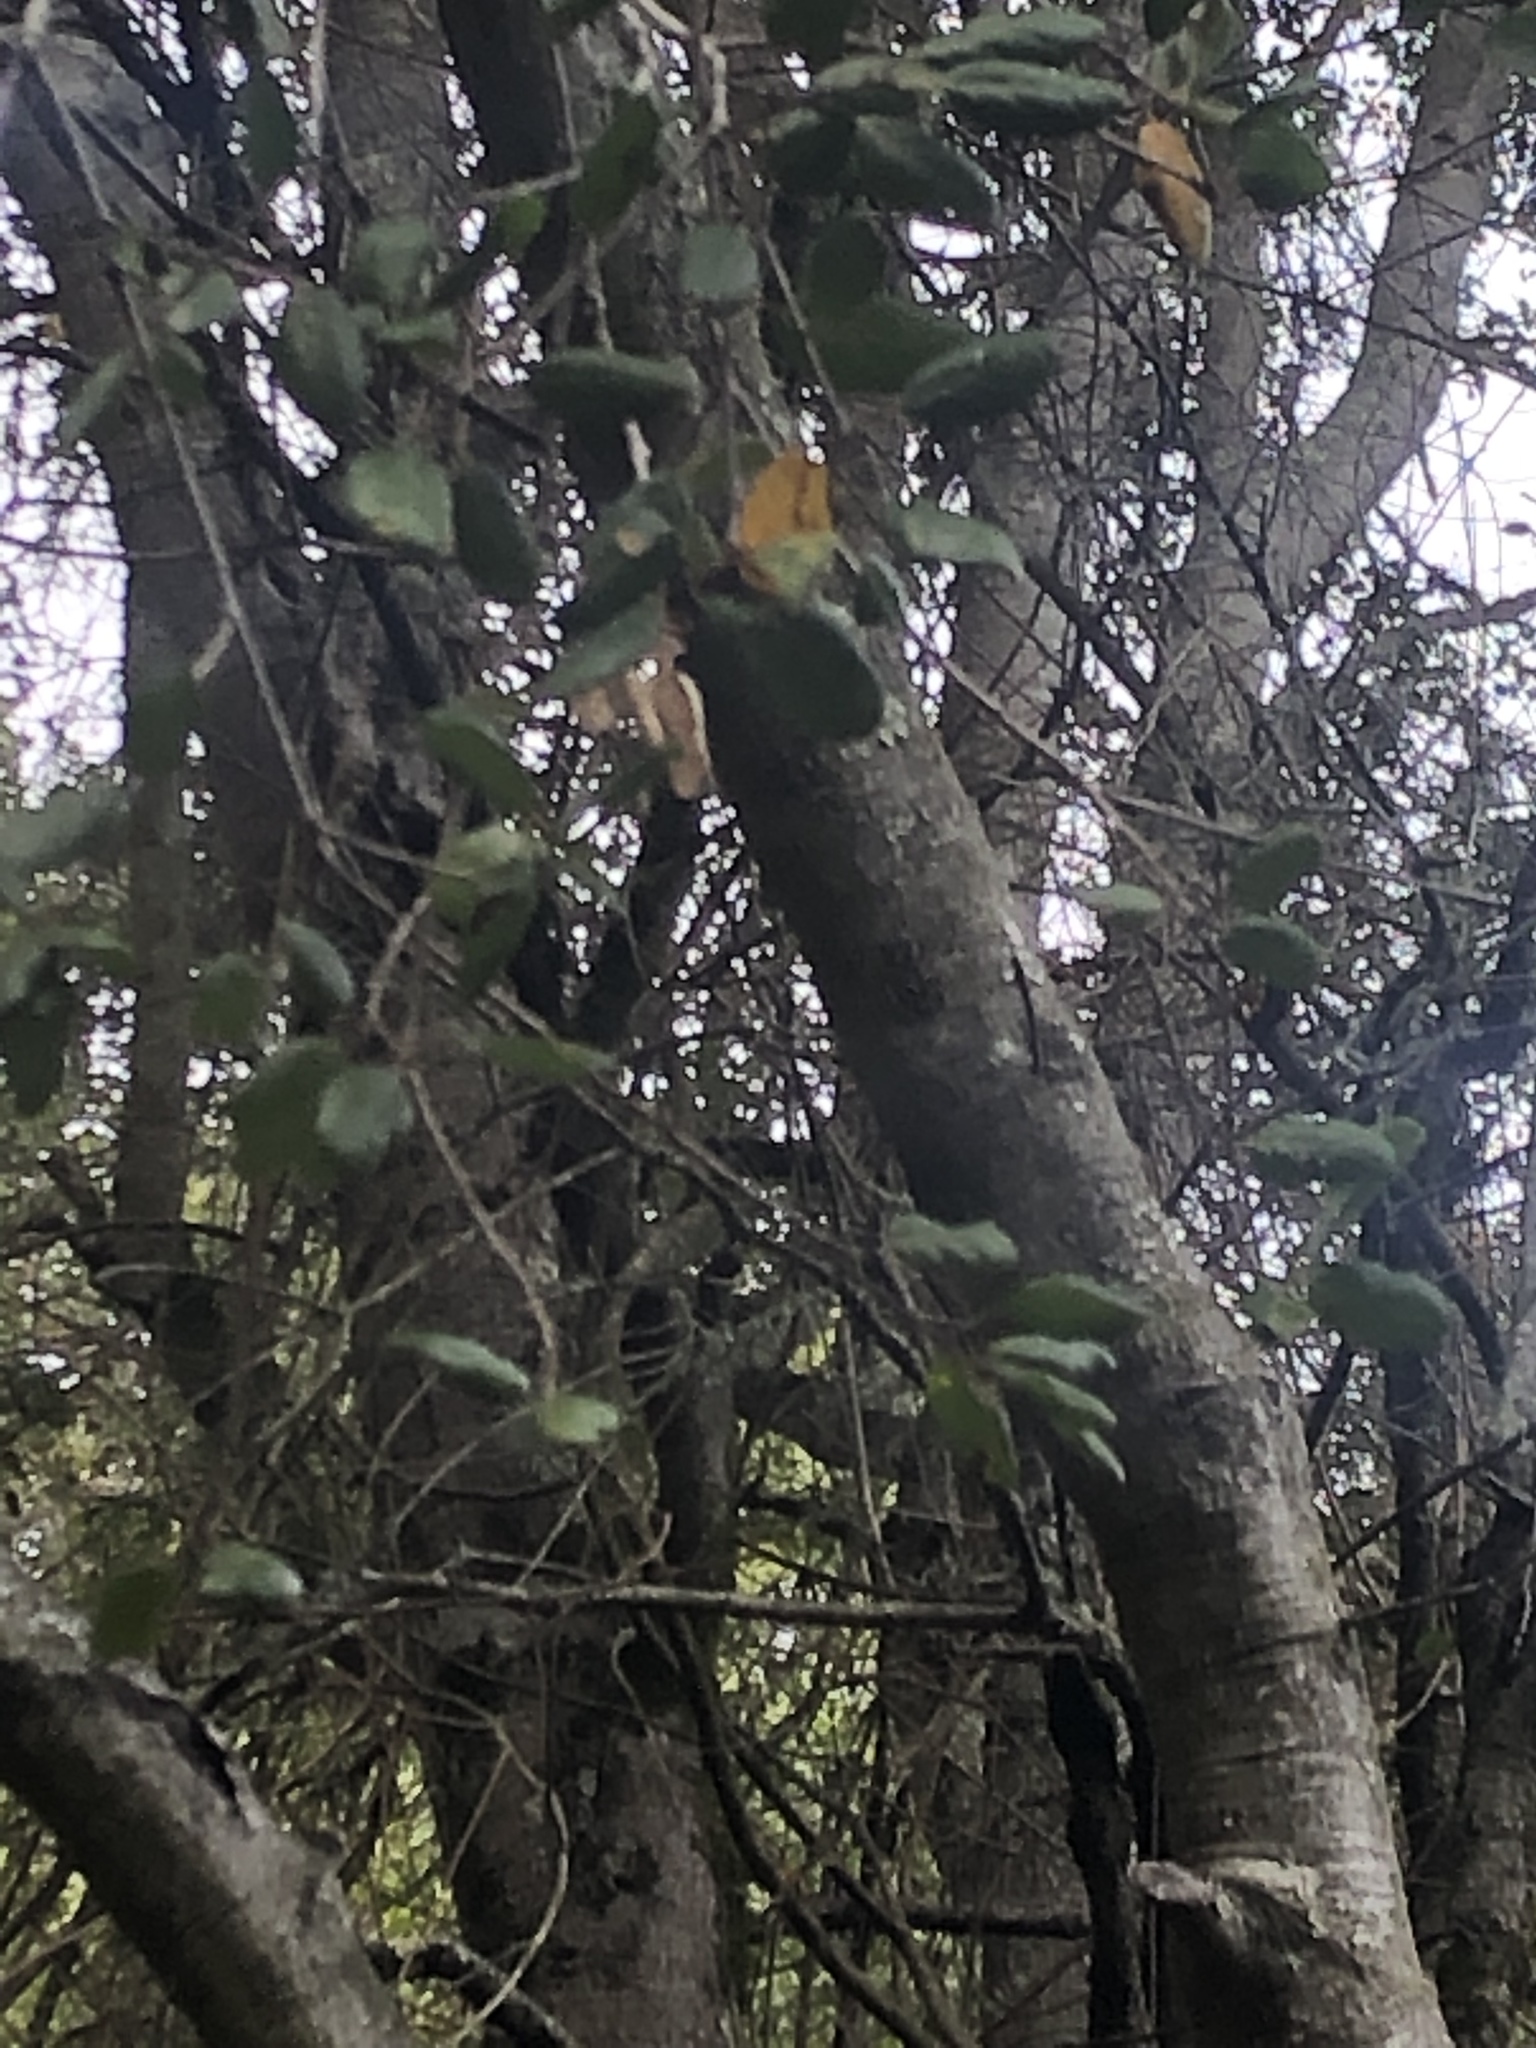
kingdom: Plantae
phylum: Tracheophyta
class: Magnoliopsida
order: Fagales
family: Fagaceae
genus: Quercus
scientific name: Quercus agrifolia
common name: California live oak
